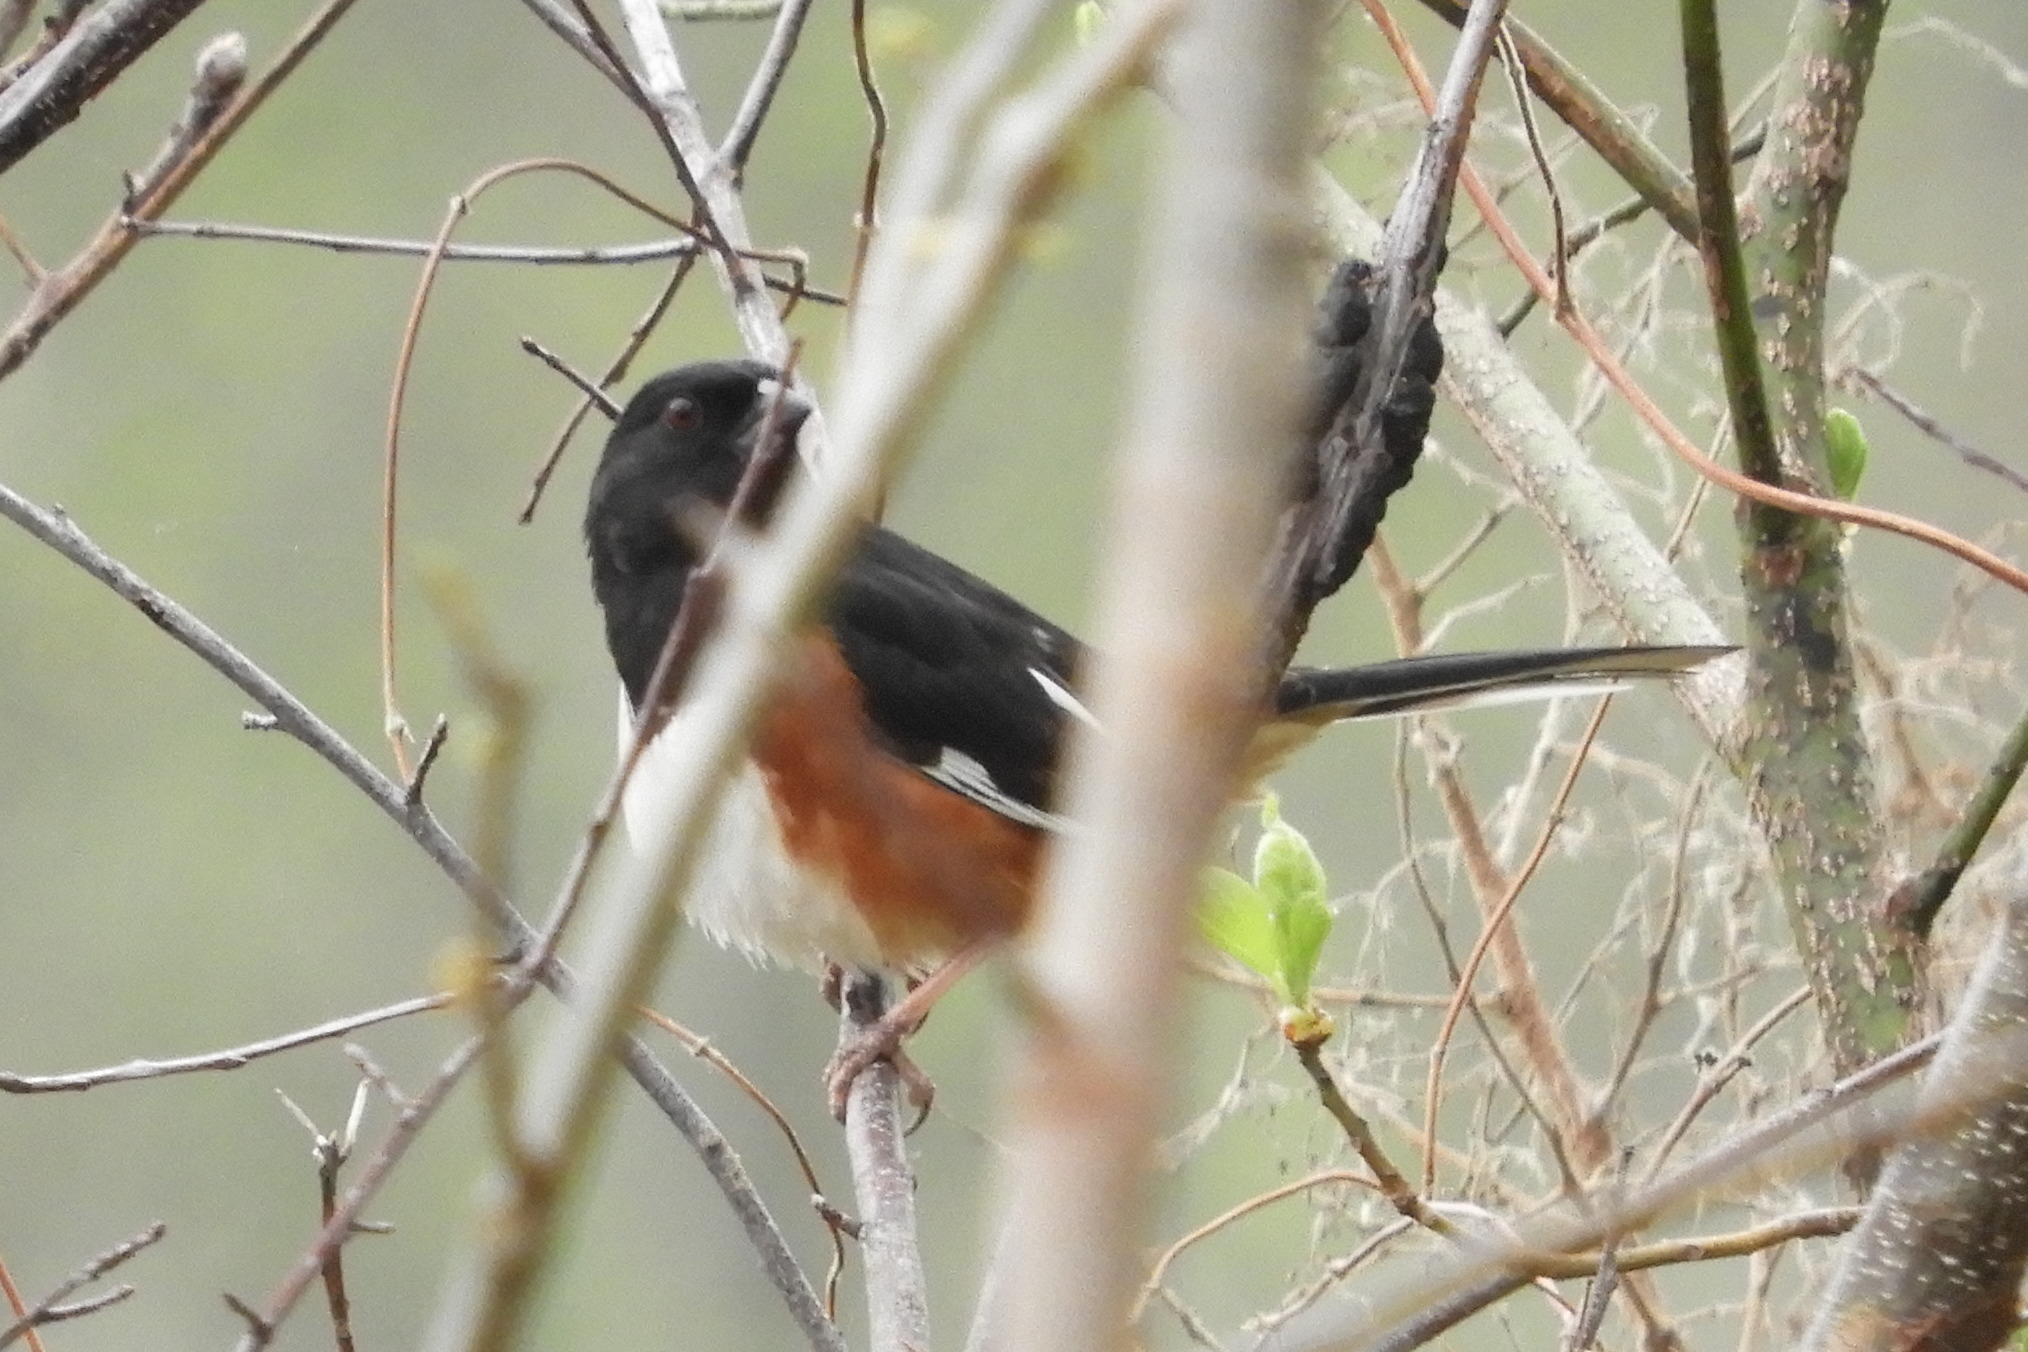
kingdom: Animalia
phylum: Chordata
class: Aves
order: Passeriformes
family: Passerellidae
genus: Pipilo
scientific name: Pipilo erythrophthalmus
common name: Eastern towhee
